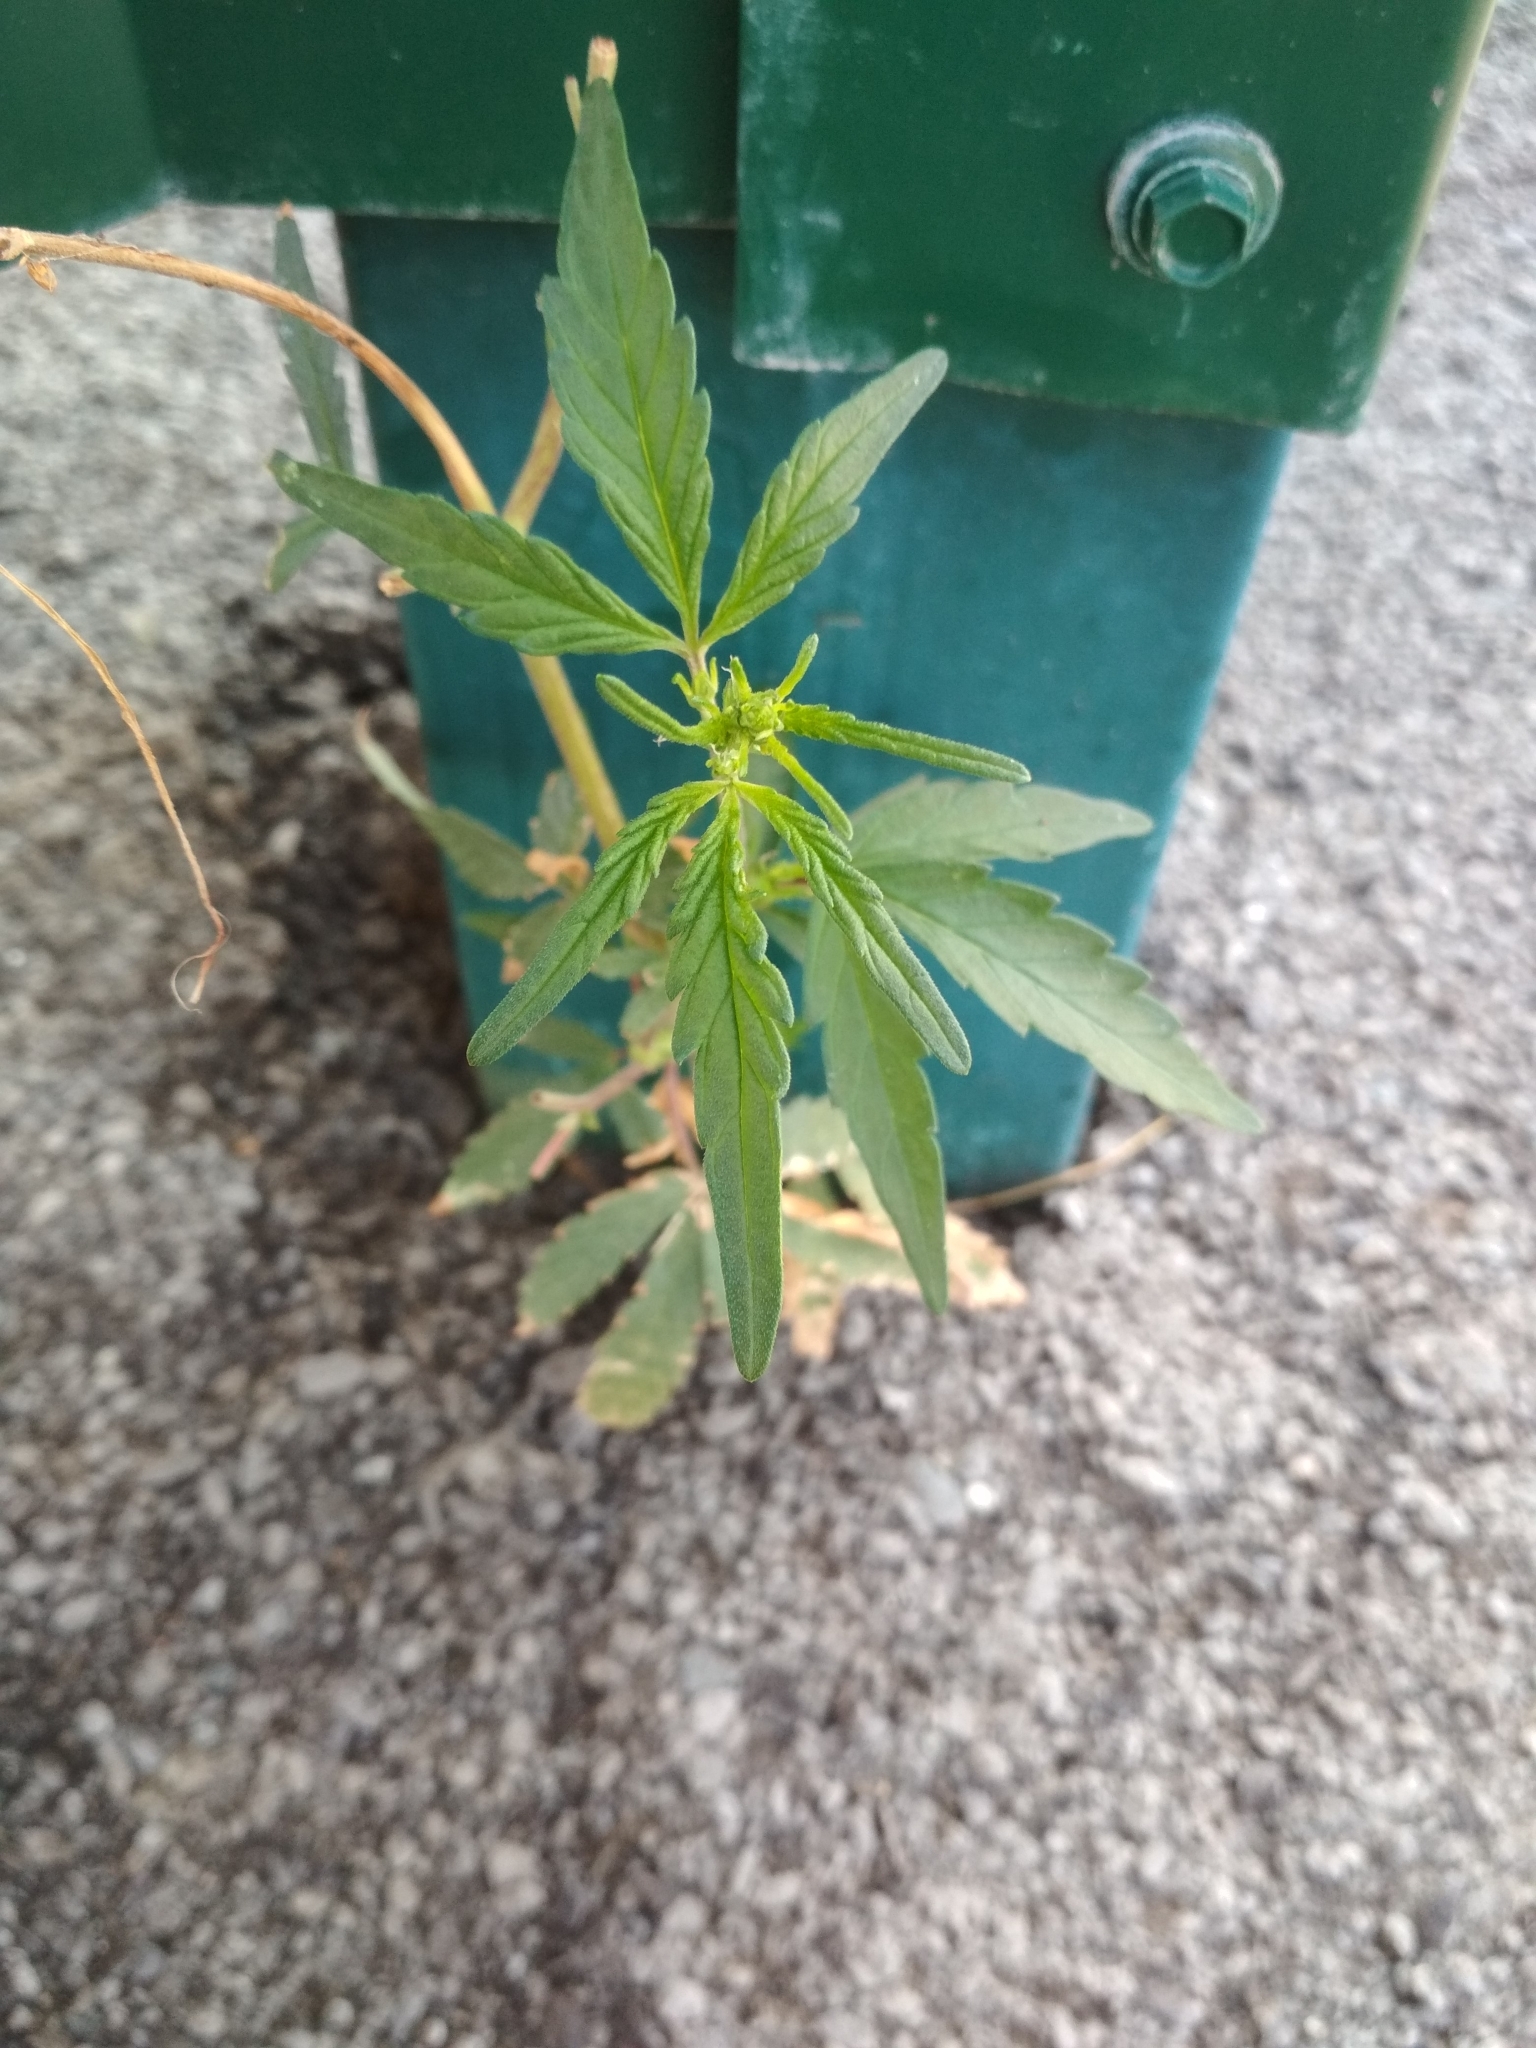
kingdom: Plantae
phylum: Tracheophyta
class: Magnoliopsida
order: Rosales
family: Cannabaceae
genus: Cannabis
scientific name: Cannabis sativa
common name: Hemp
